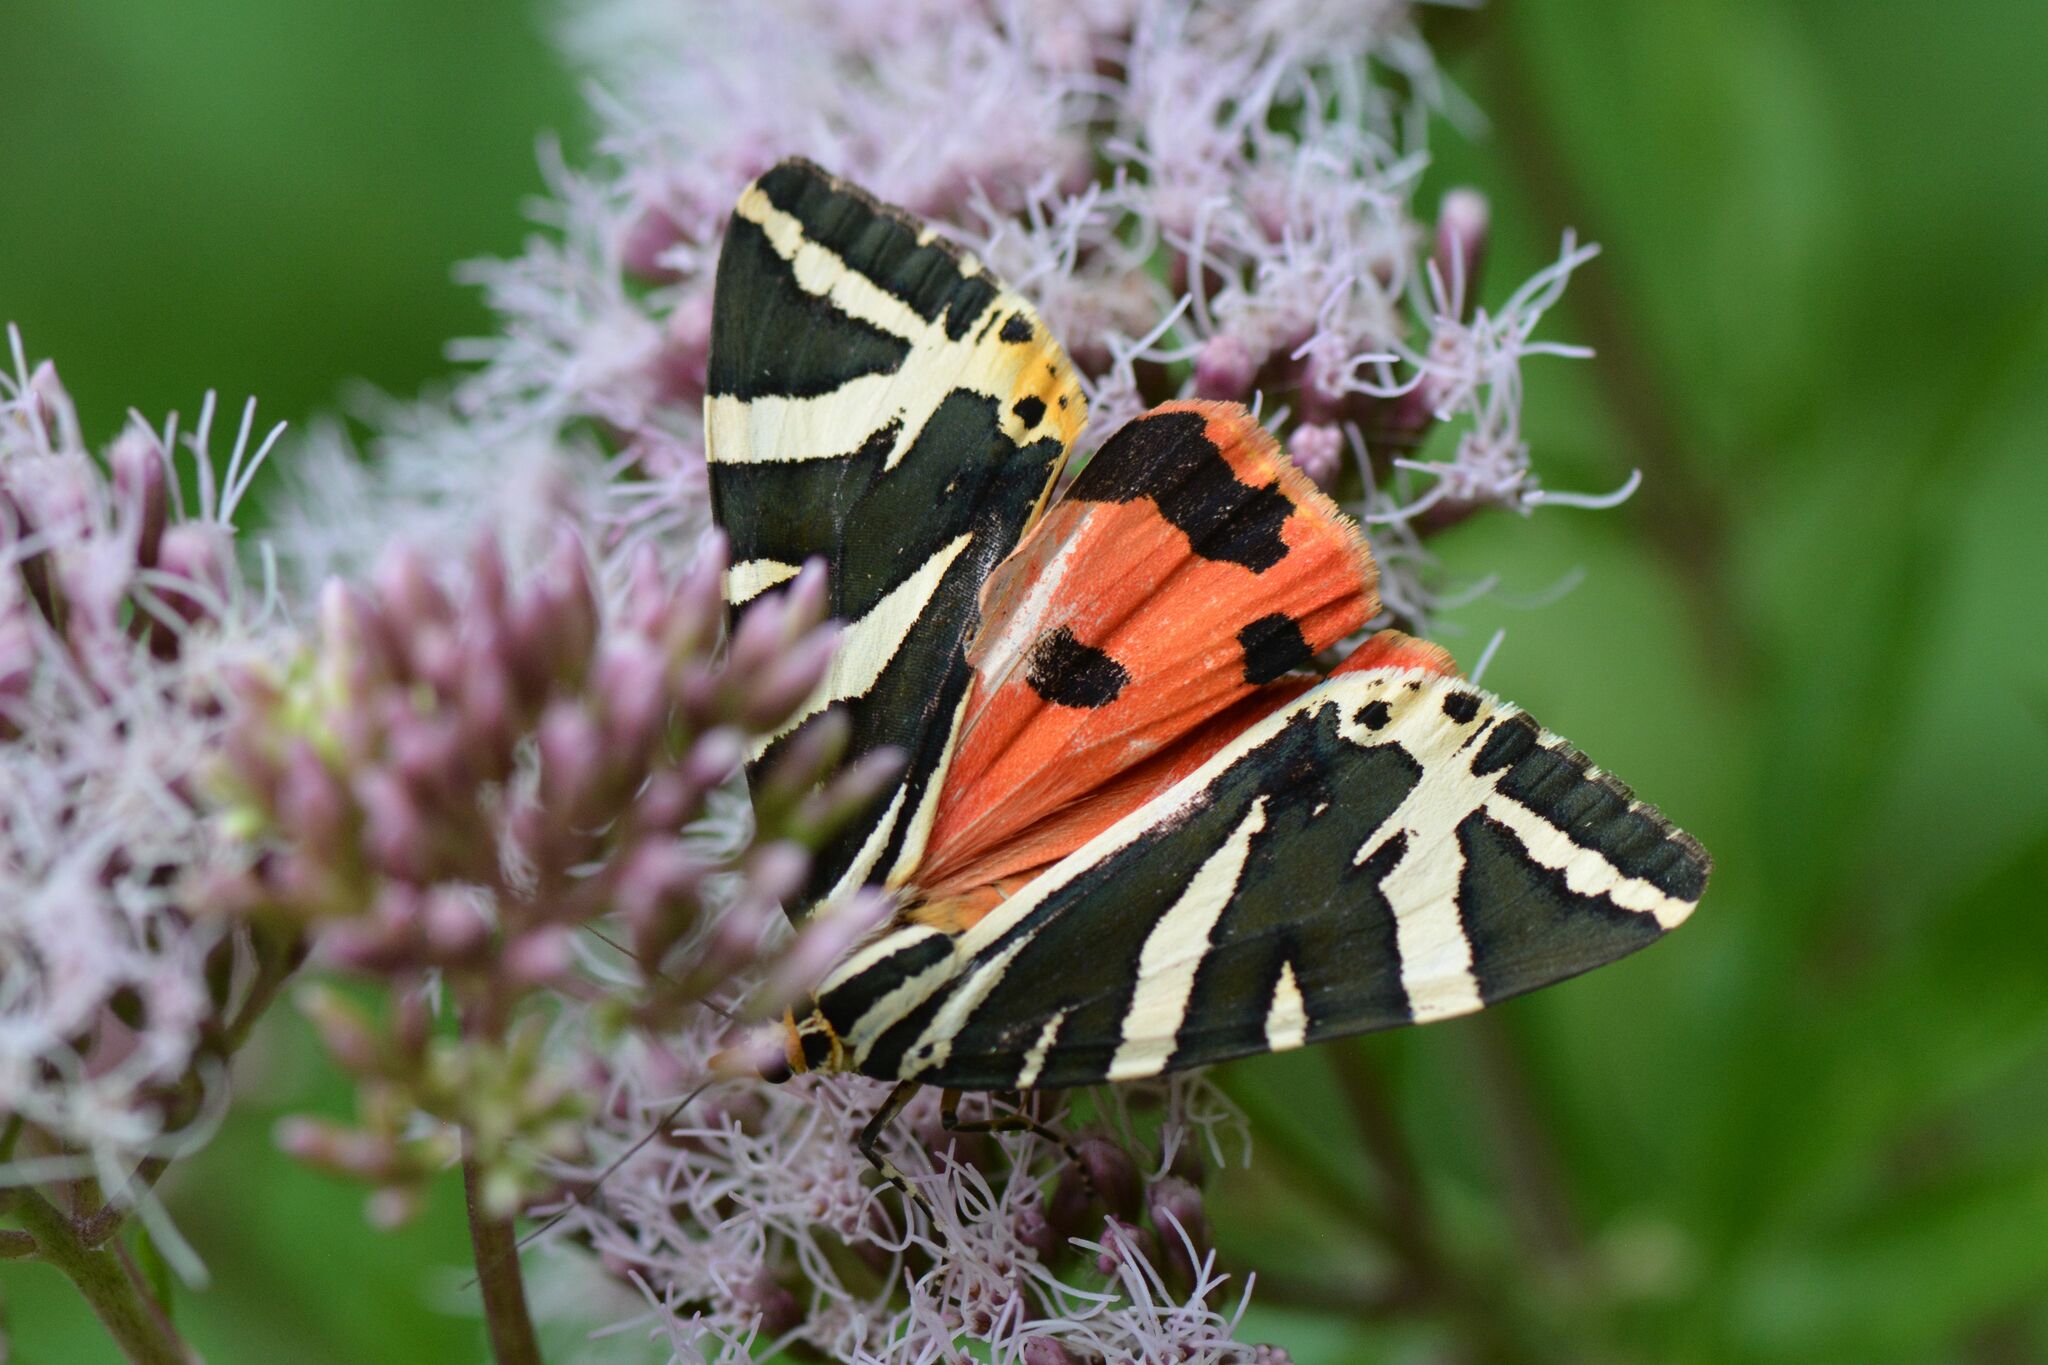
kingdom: Animalia
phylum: Arthropoda
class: Insecta
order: Lepidoptera
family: Erebidae
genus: Euplagia
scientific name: Euplagia quadripunctaria
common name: Jersey tiger
